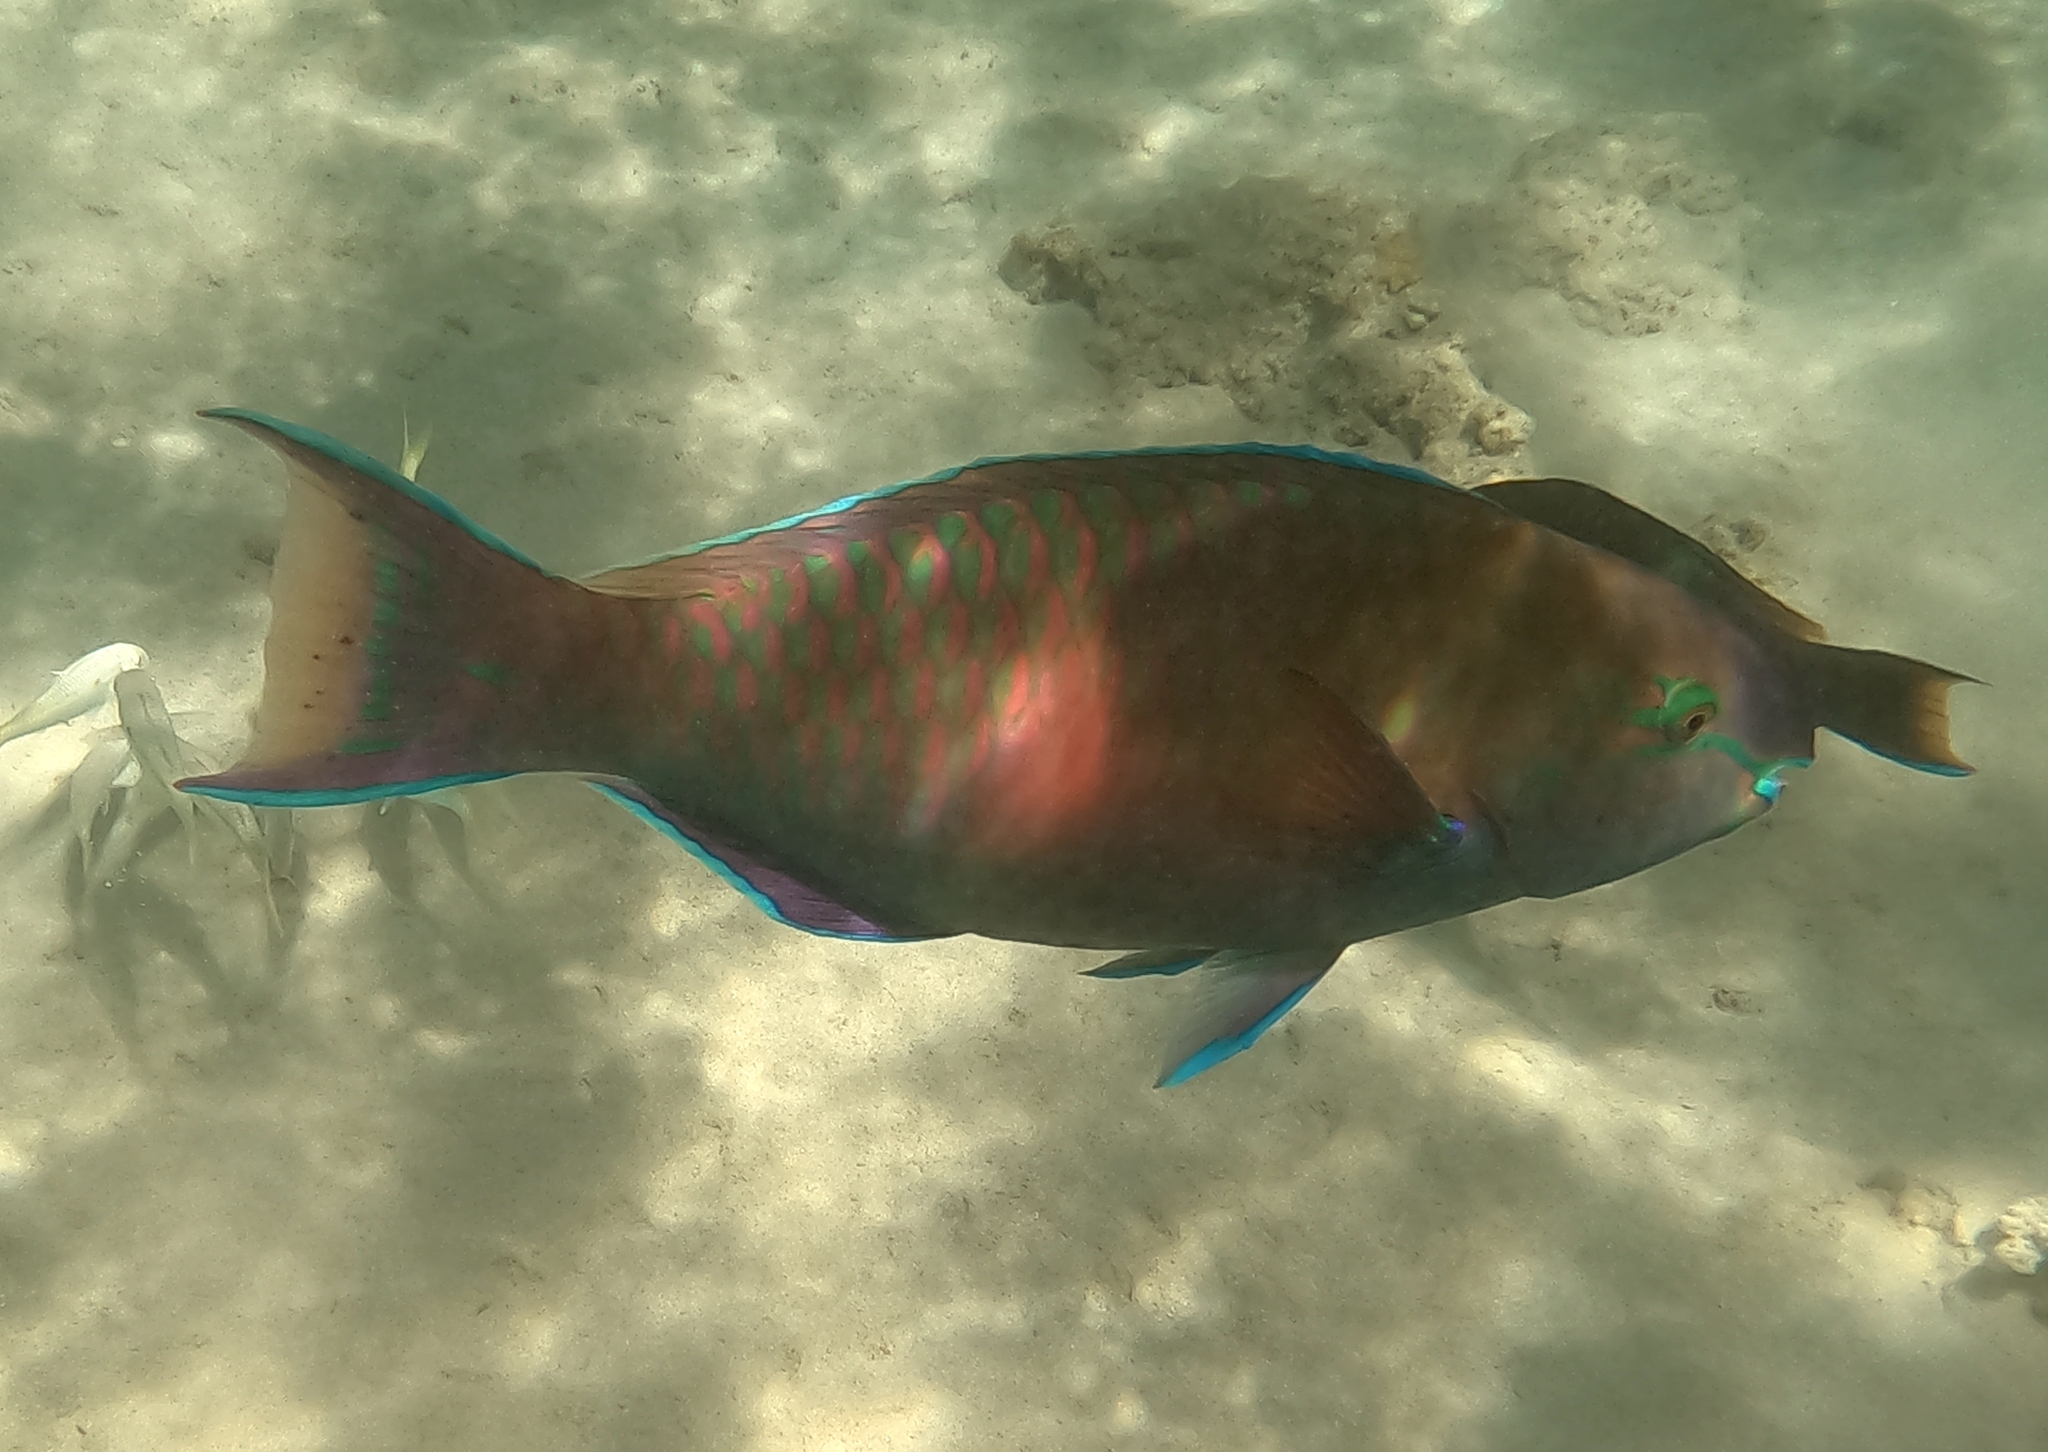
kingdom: Animalia
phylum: Chordata
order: Perciformes
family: Scaridae
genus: Scarus
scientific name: Scarus fuscopurpureus
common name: Purple-brown parrotfish
